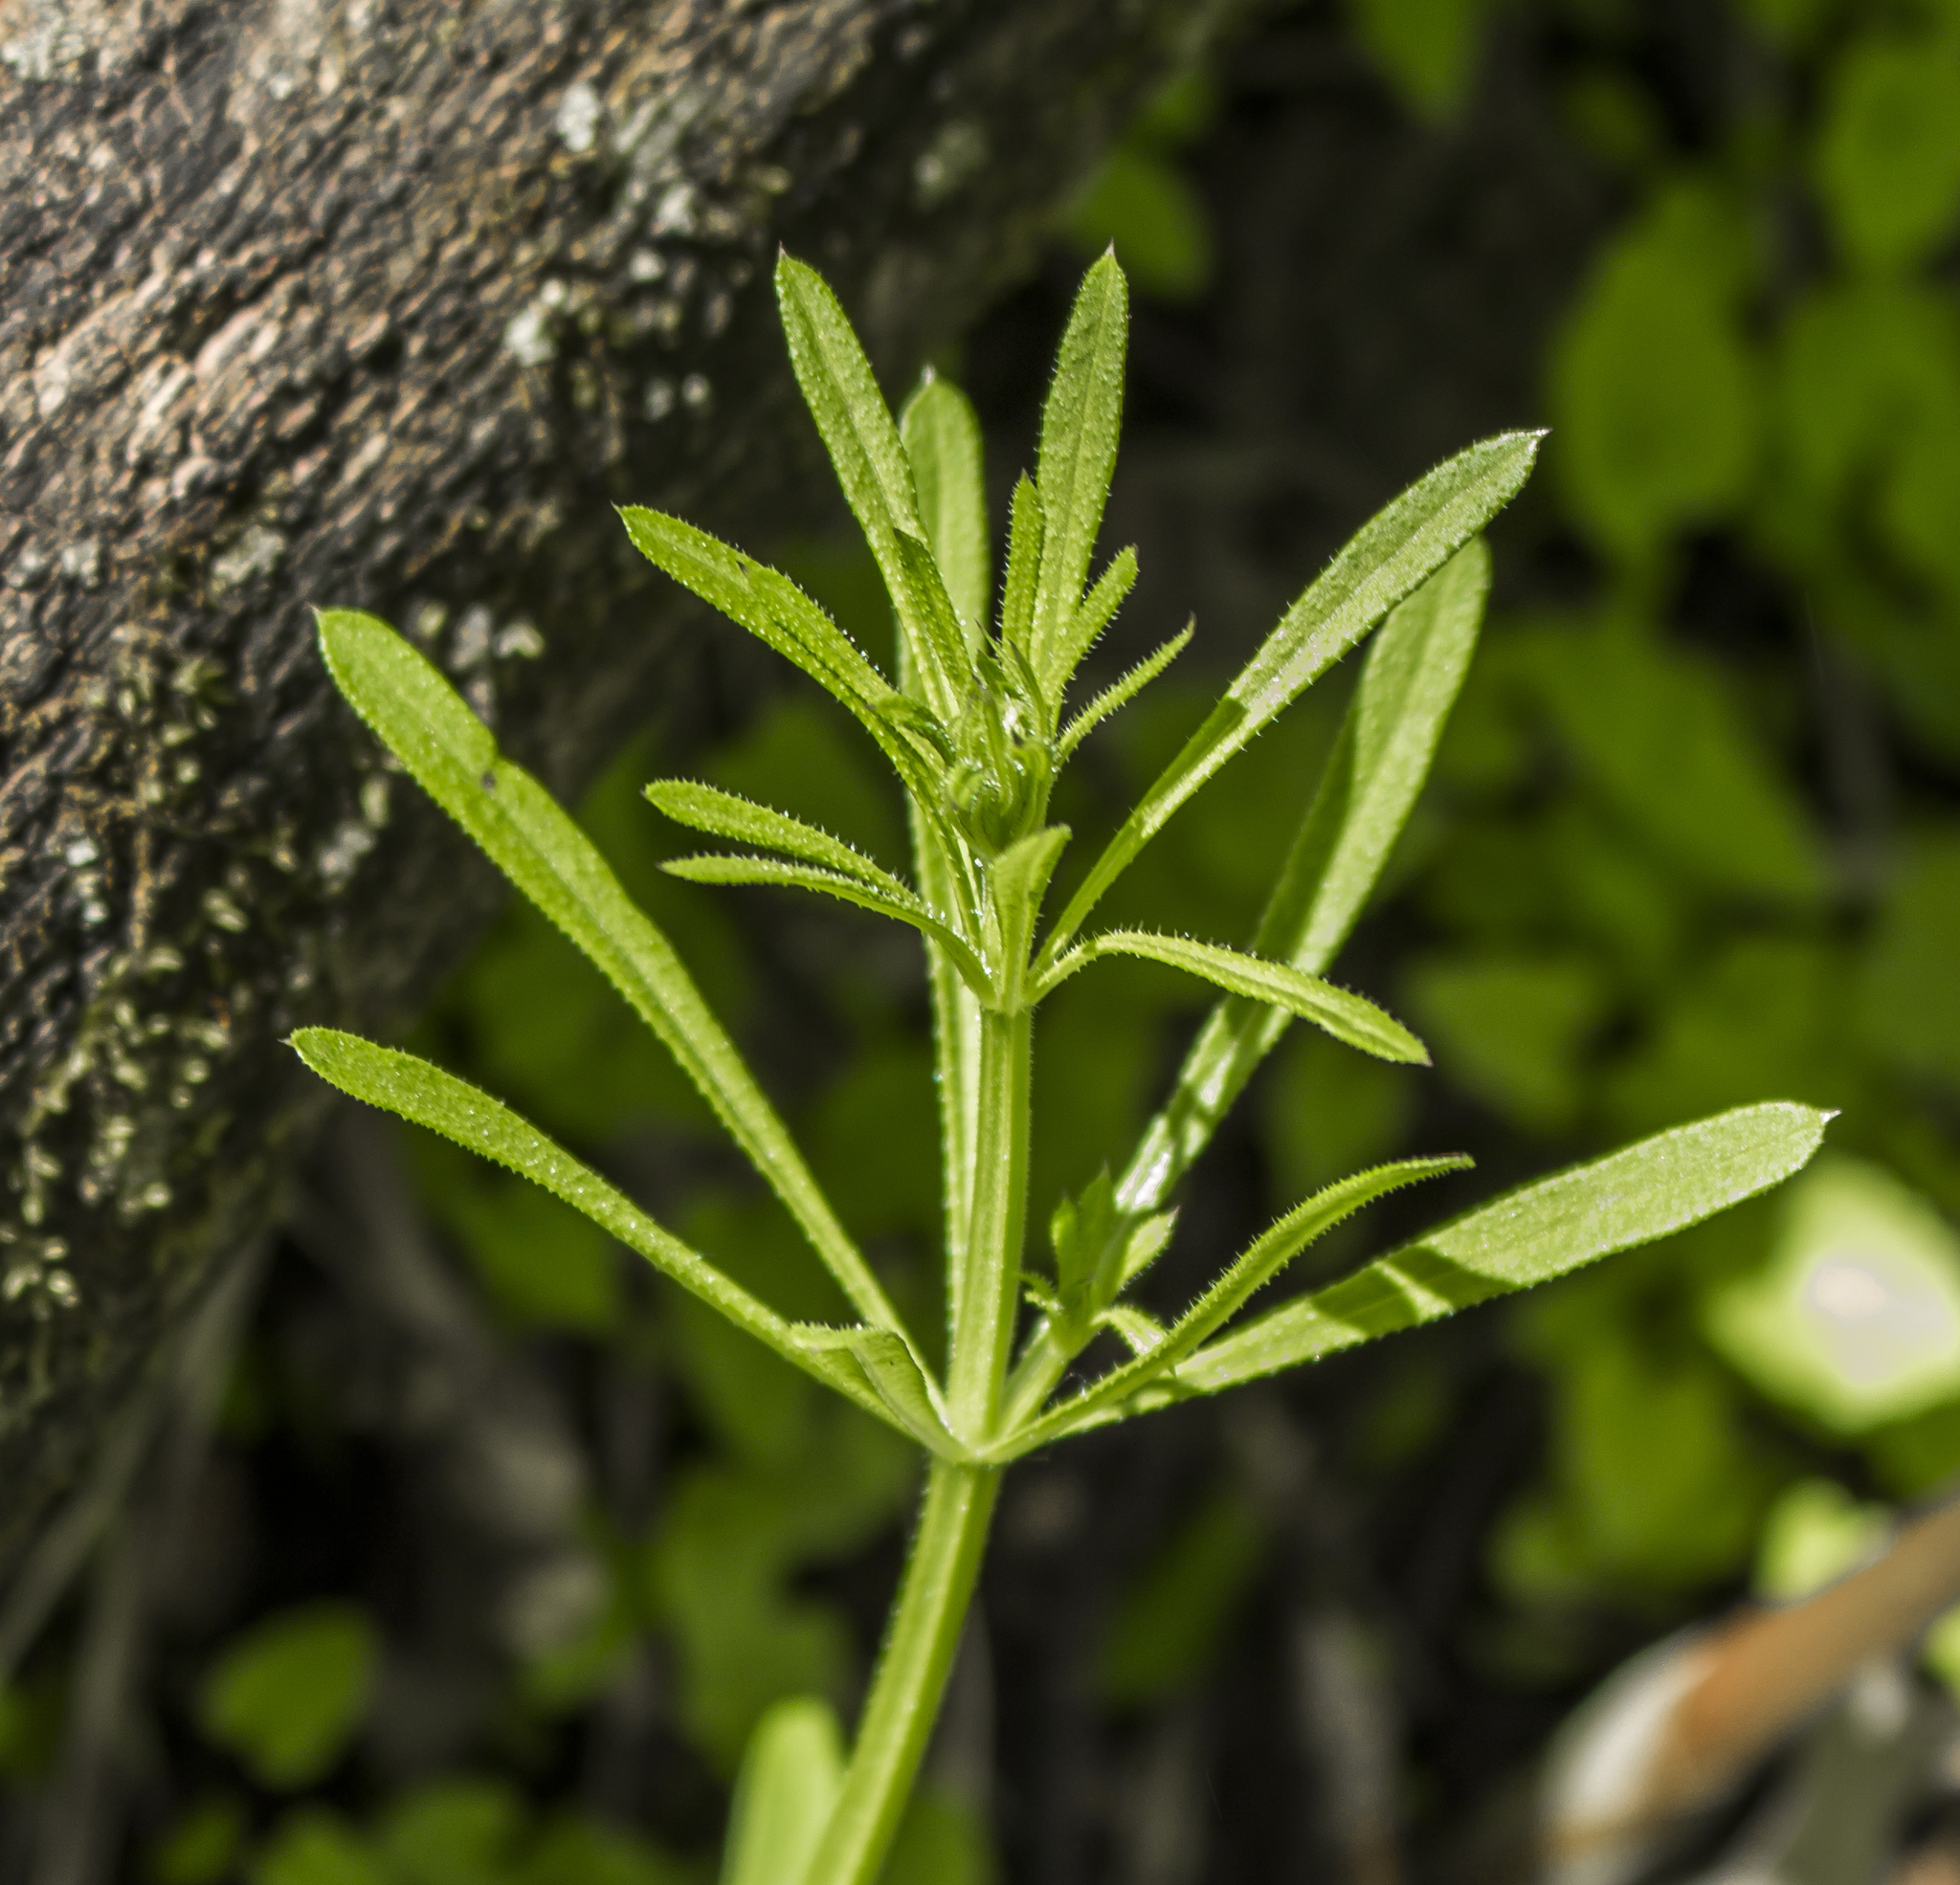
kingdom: Plantae
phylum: Tracheophyta
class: Magnoliopsida
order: Gentianales
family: Rubiaceae
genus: Galium
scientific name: Galium aparine
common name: Cleavers
